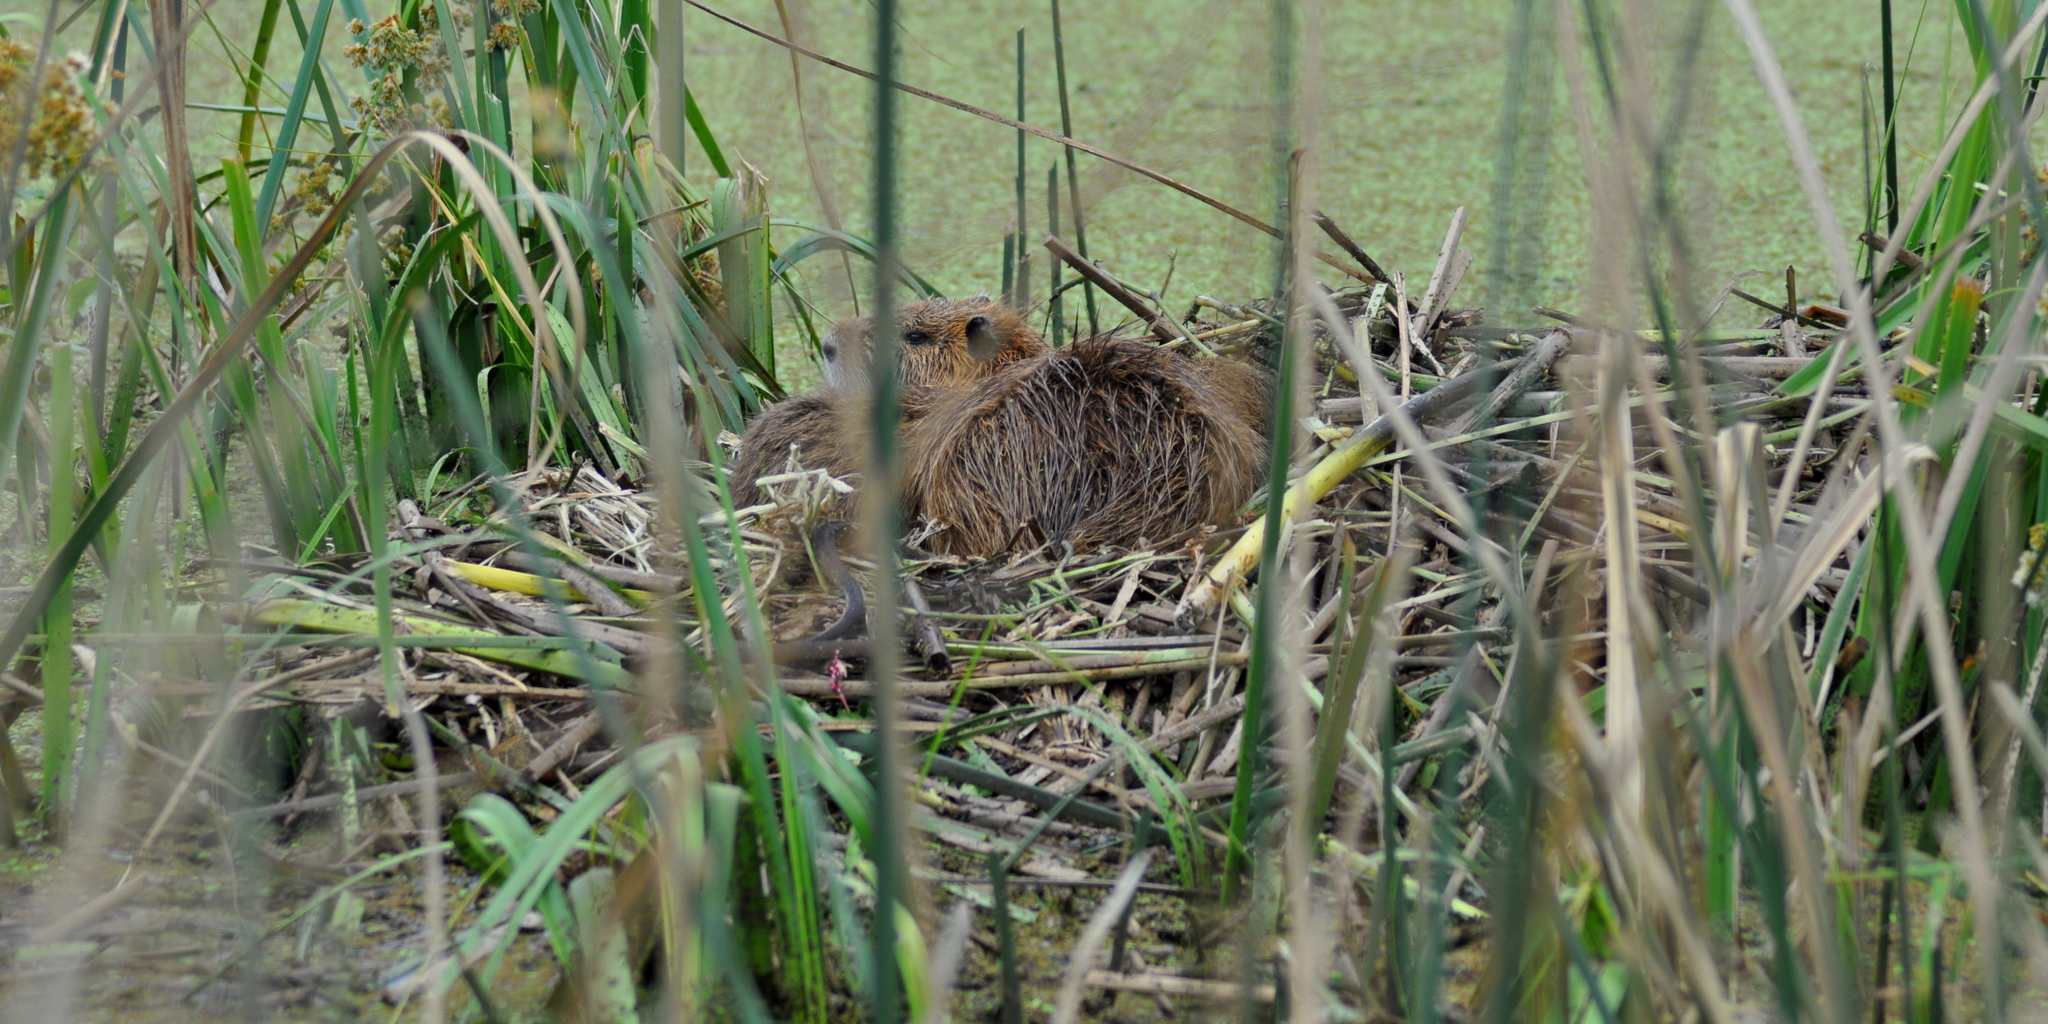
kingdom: Animalia
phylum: Chordata
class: Mammalia
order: Rodentia
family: Myocastoridae
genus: Myocastor
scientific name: Myocastor coypus
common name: Coypu
